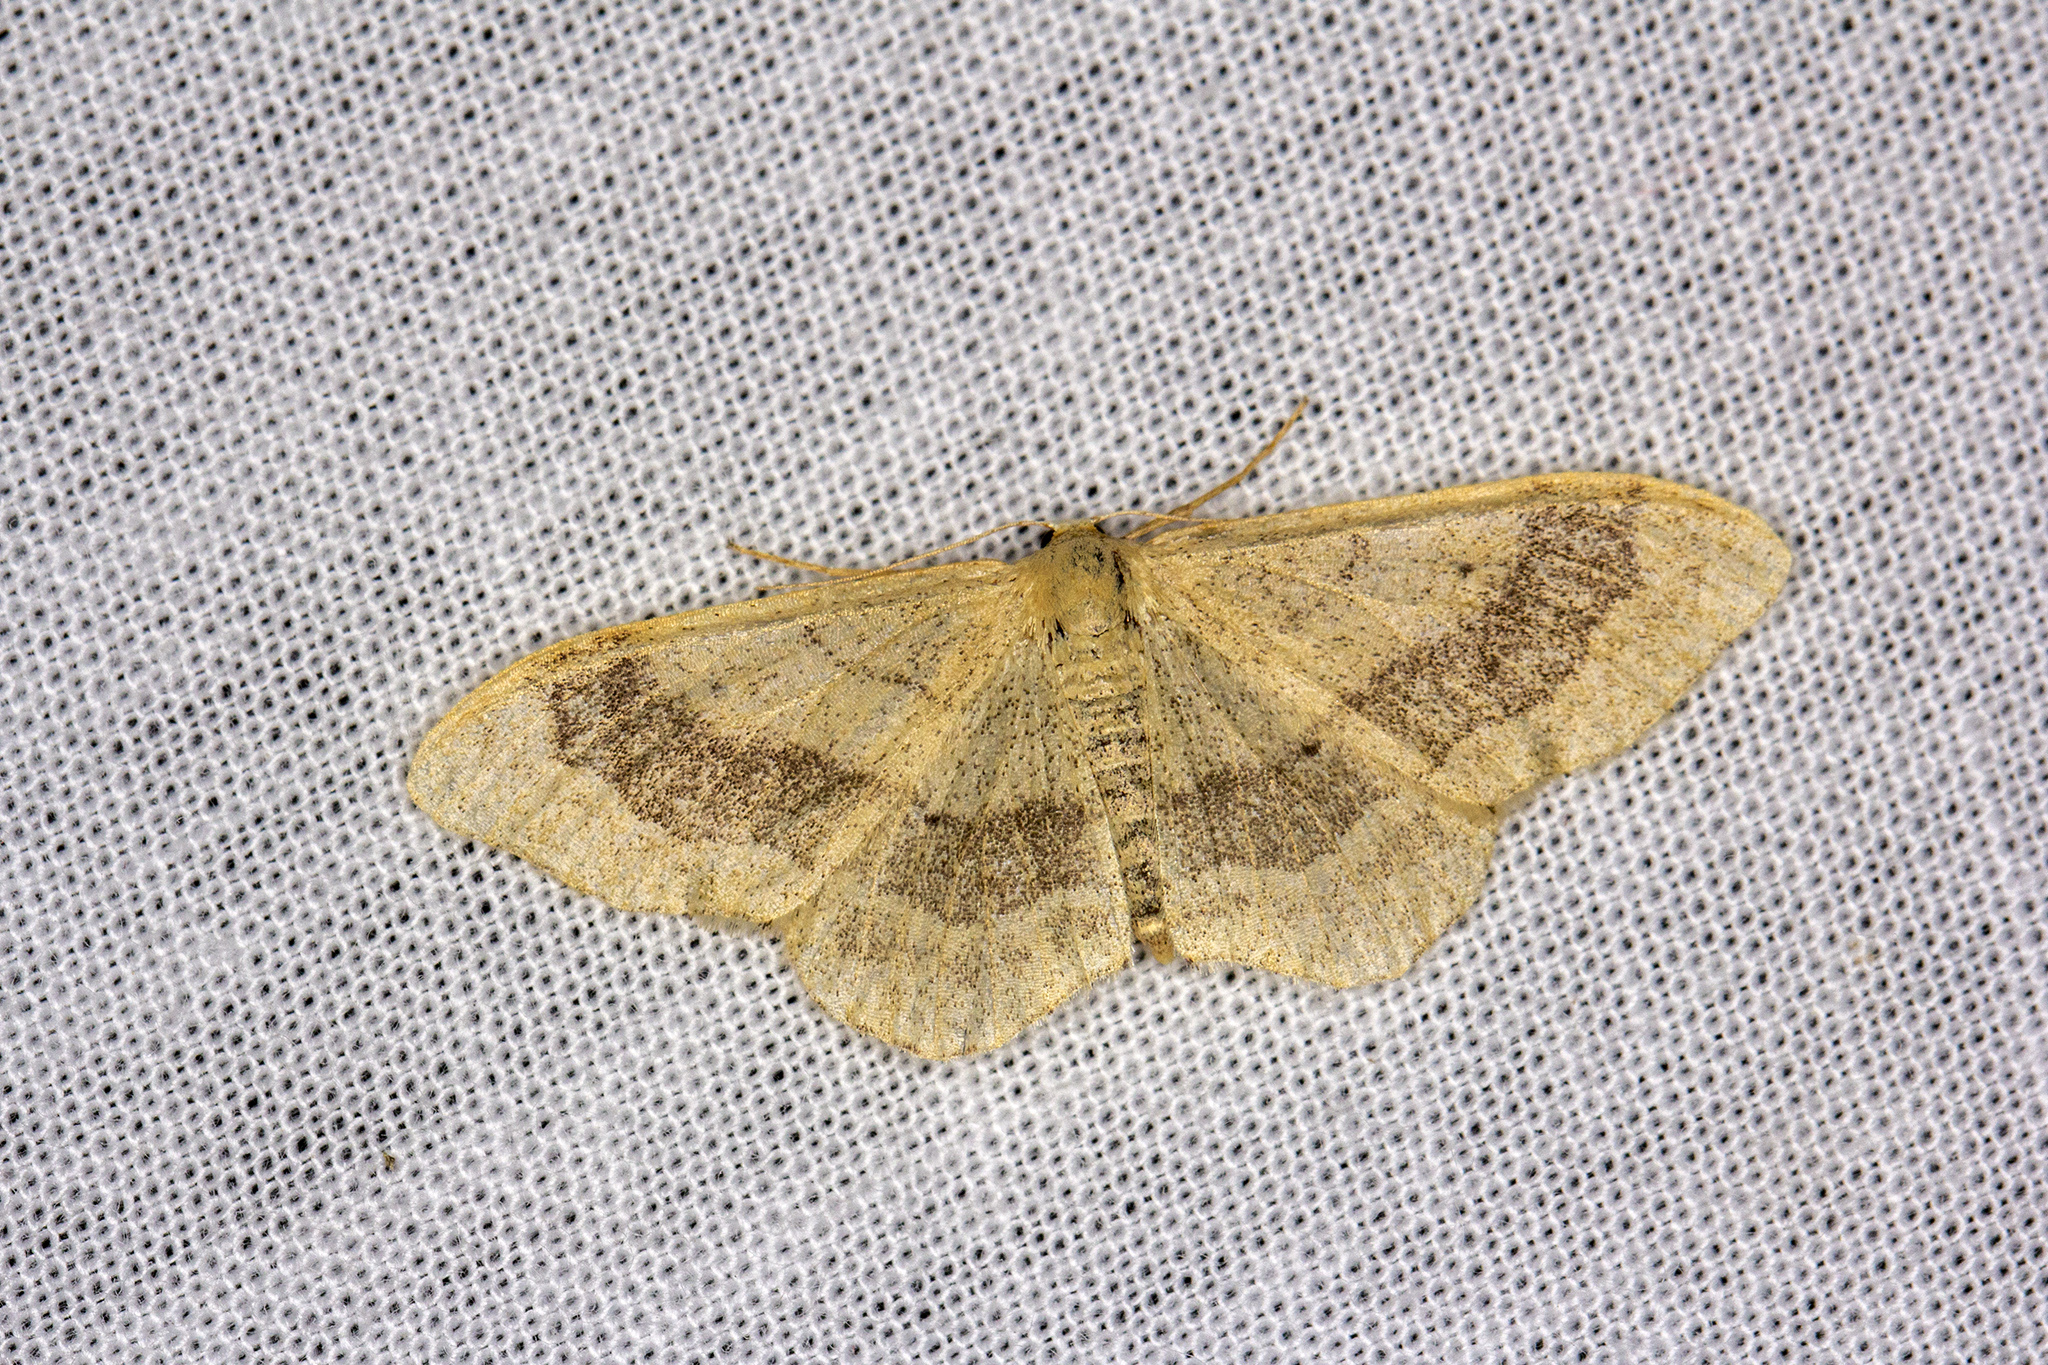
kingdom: Animalia
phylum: Arthropoda
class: Insecta
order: Lepidoptera
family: Geometridae
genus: Idaea
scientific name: Idaea aversata
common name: Riband wave
